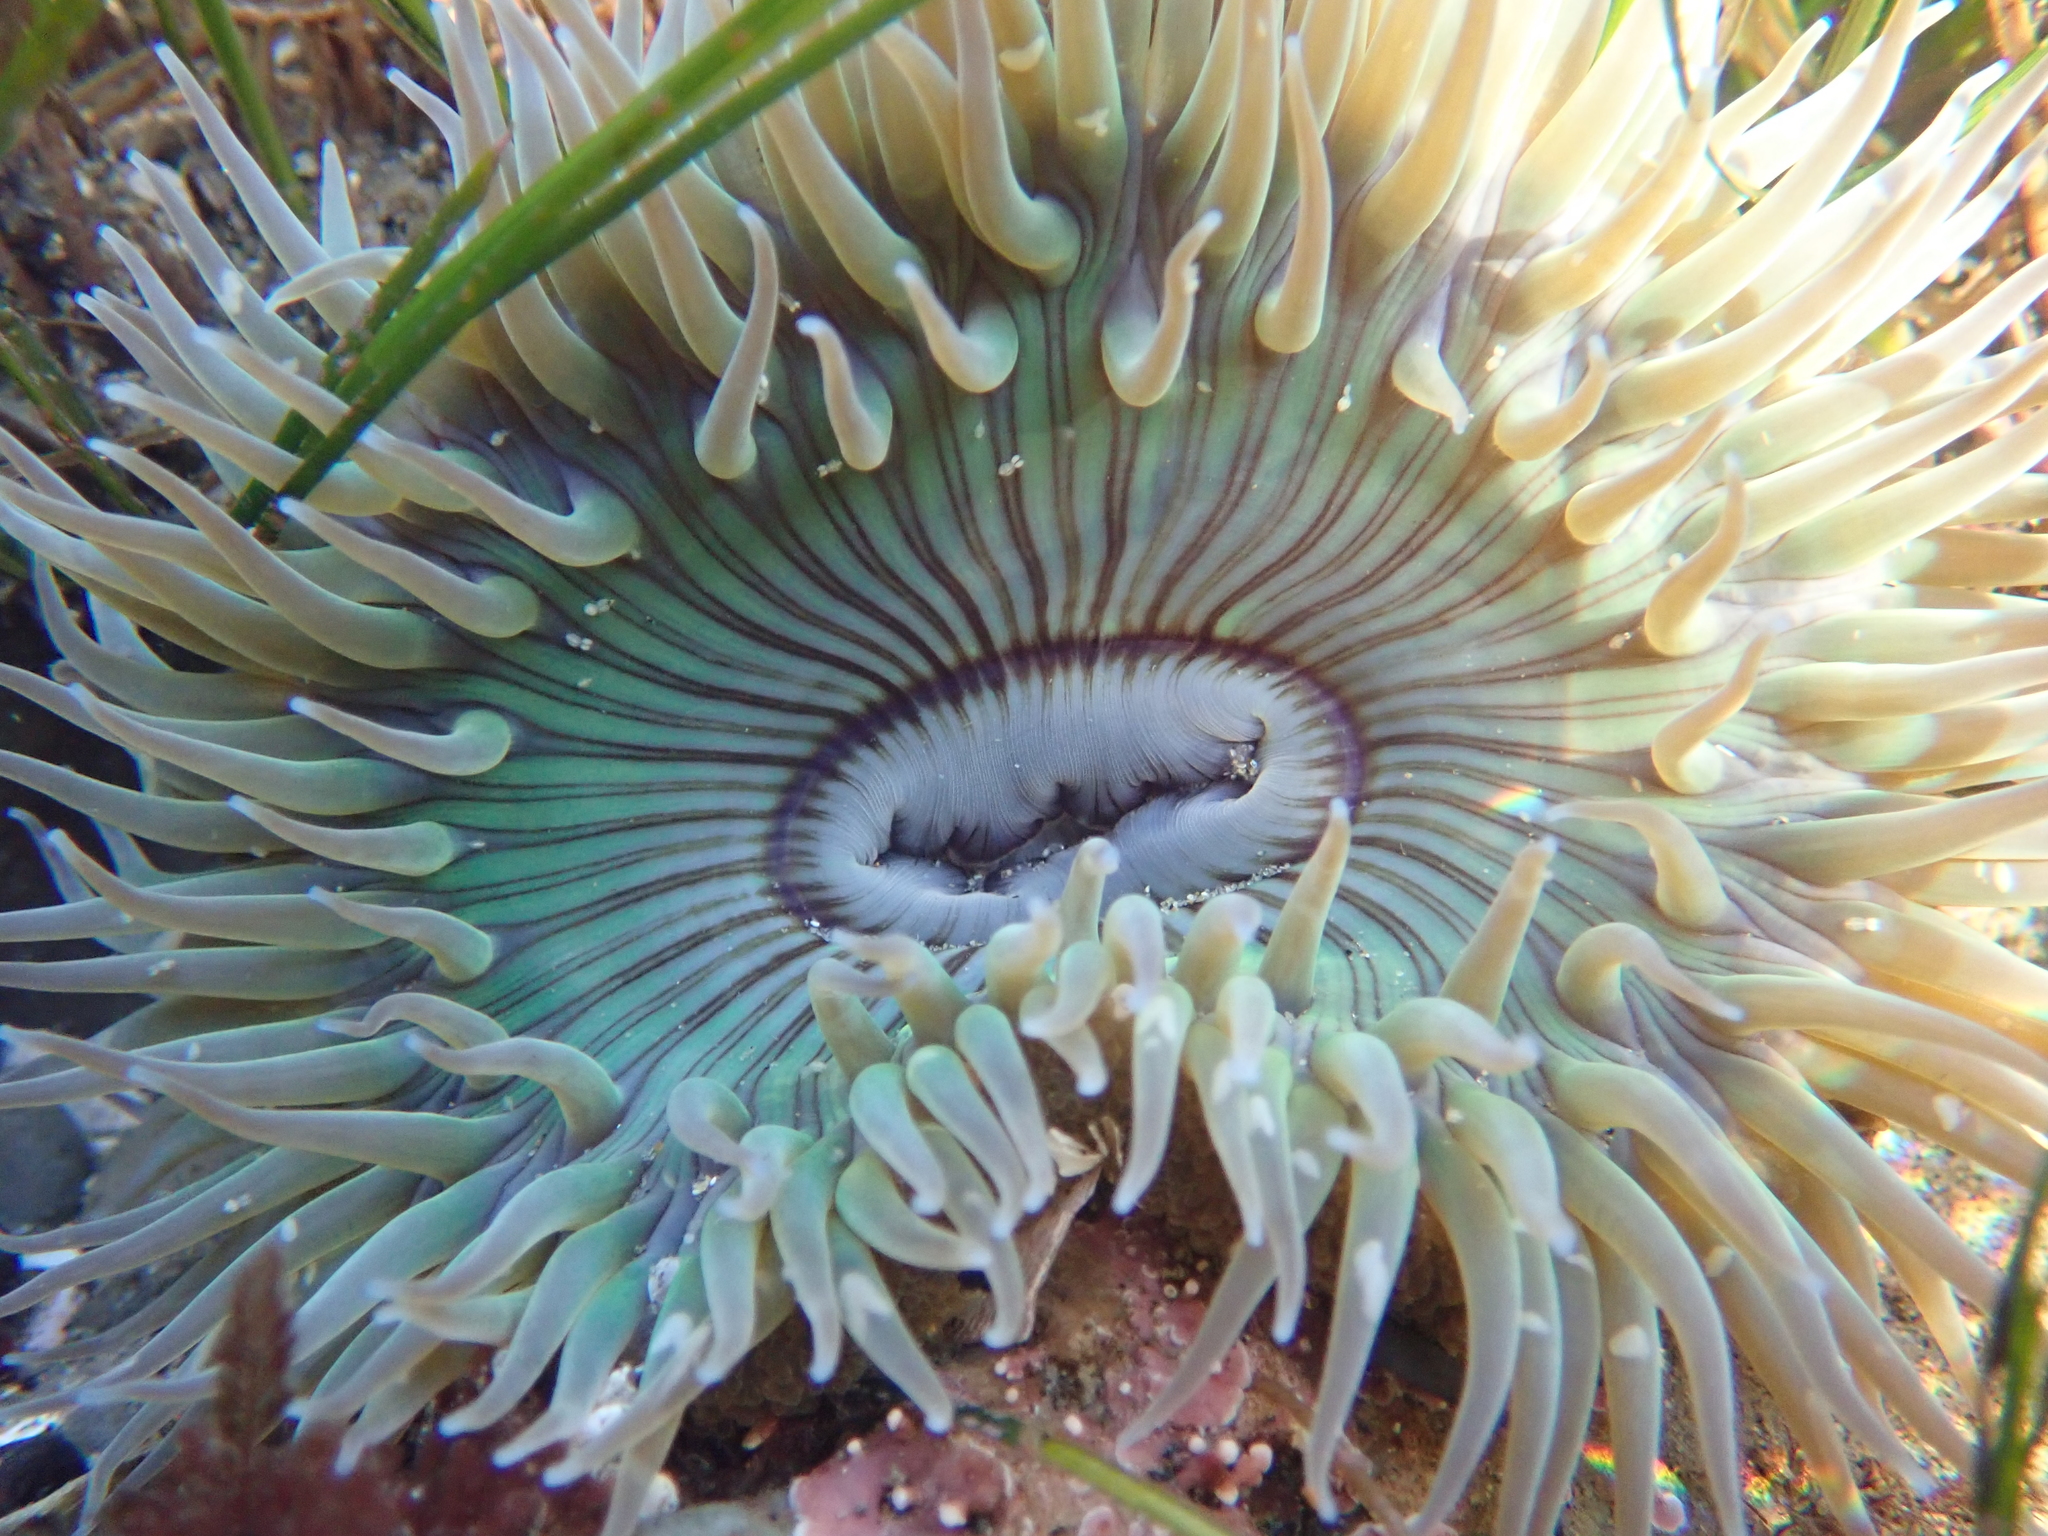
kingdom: Animalia
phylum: Cnidaria
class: Anthozoa
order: Actiniaria
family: Actiniidae
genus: Anthopleura
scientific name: Anthopleura sola
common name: Sun anemone
